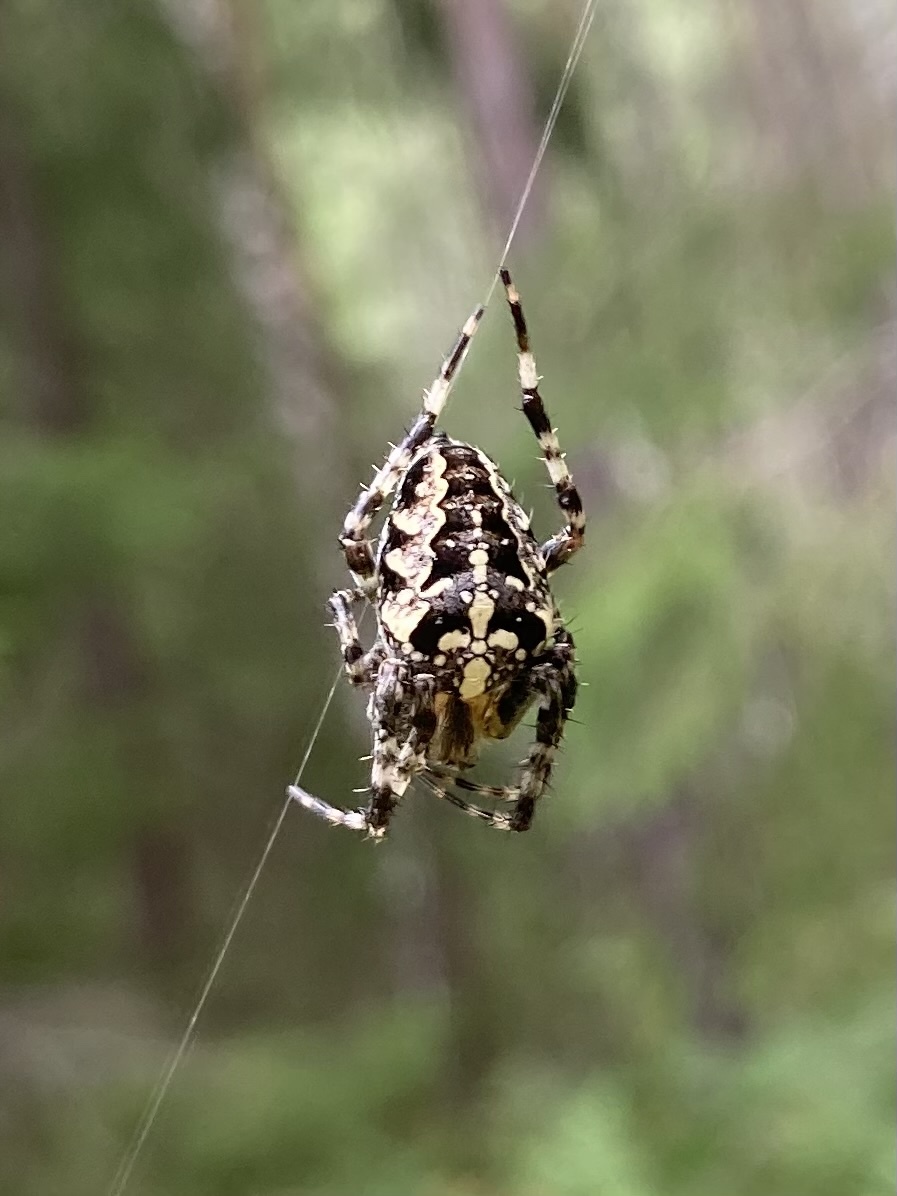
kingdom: Animalia
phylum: Arthropoda
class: Arachnida
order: Araneae
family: Araneidae
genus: Araneus
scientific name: Araneus diadematus
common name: Cross orbweaver
